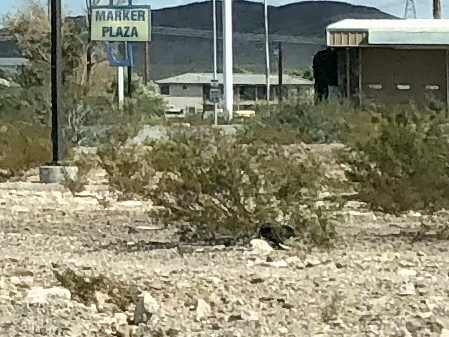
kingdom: Plantae
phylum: Tracheophyta
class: Magnoliopsida
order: Zygophyllales
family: Zygophyllaceae
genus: Larrea
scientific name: Larrea tridentata
